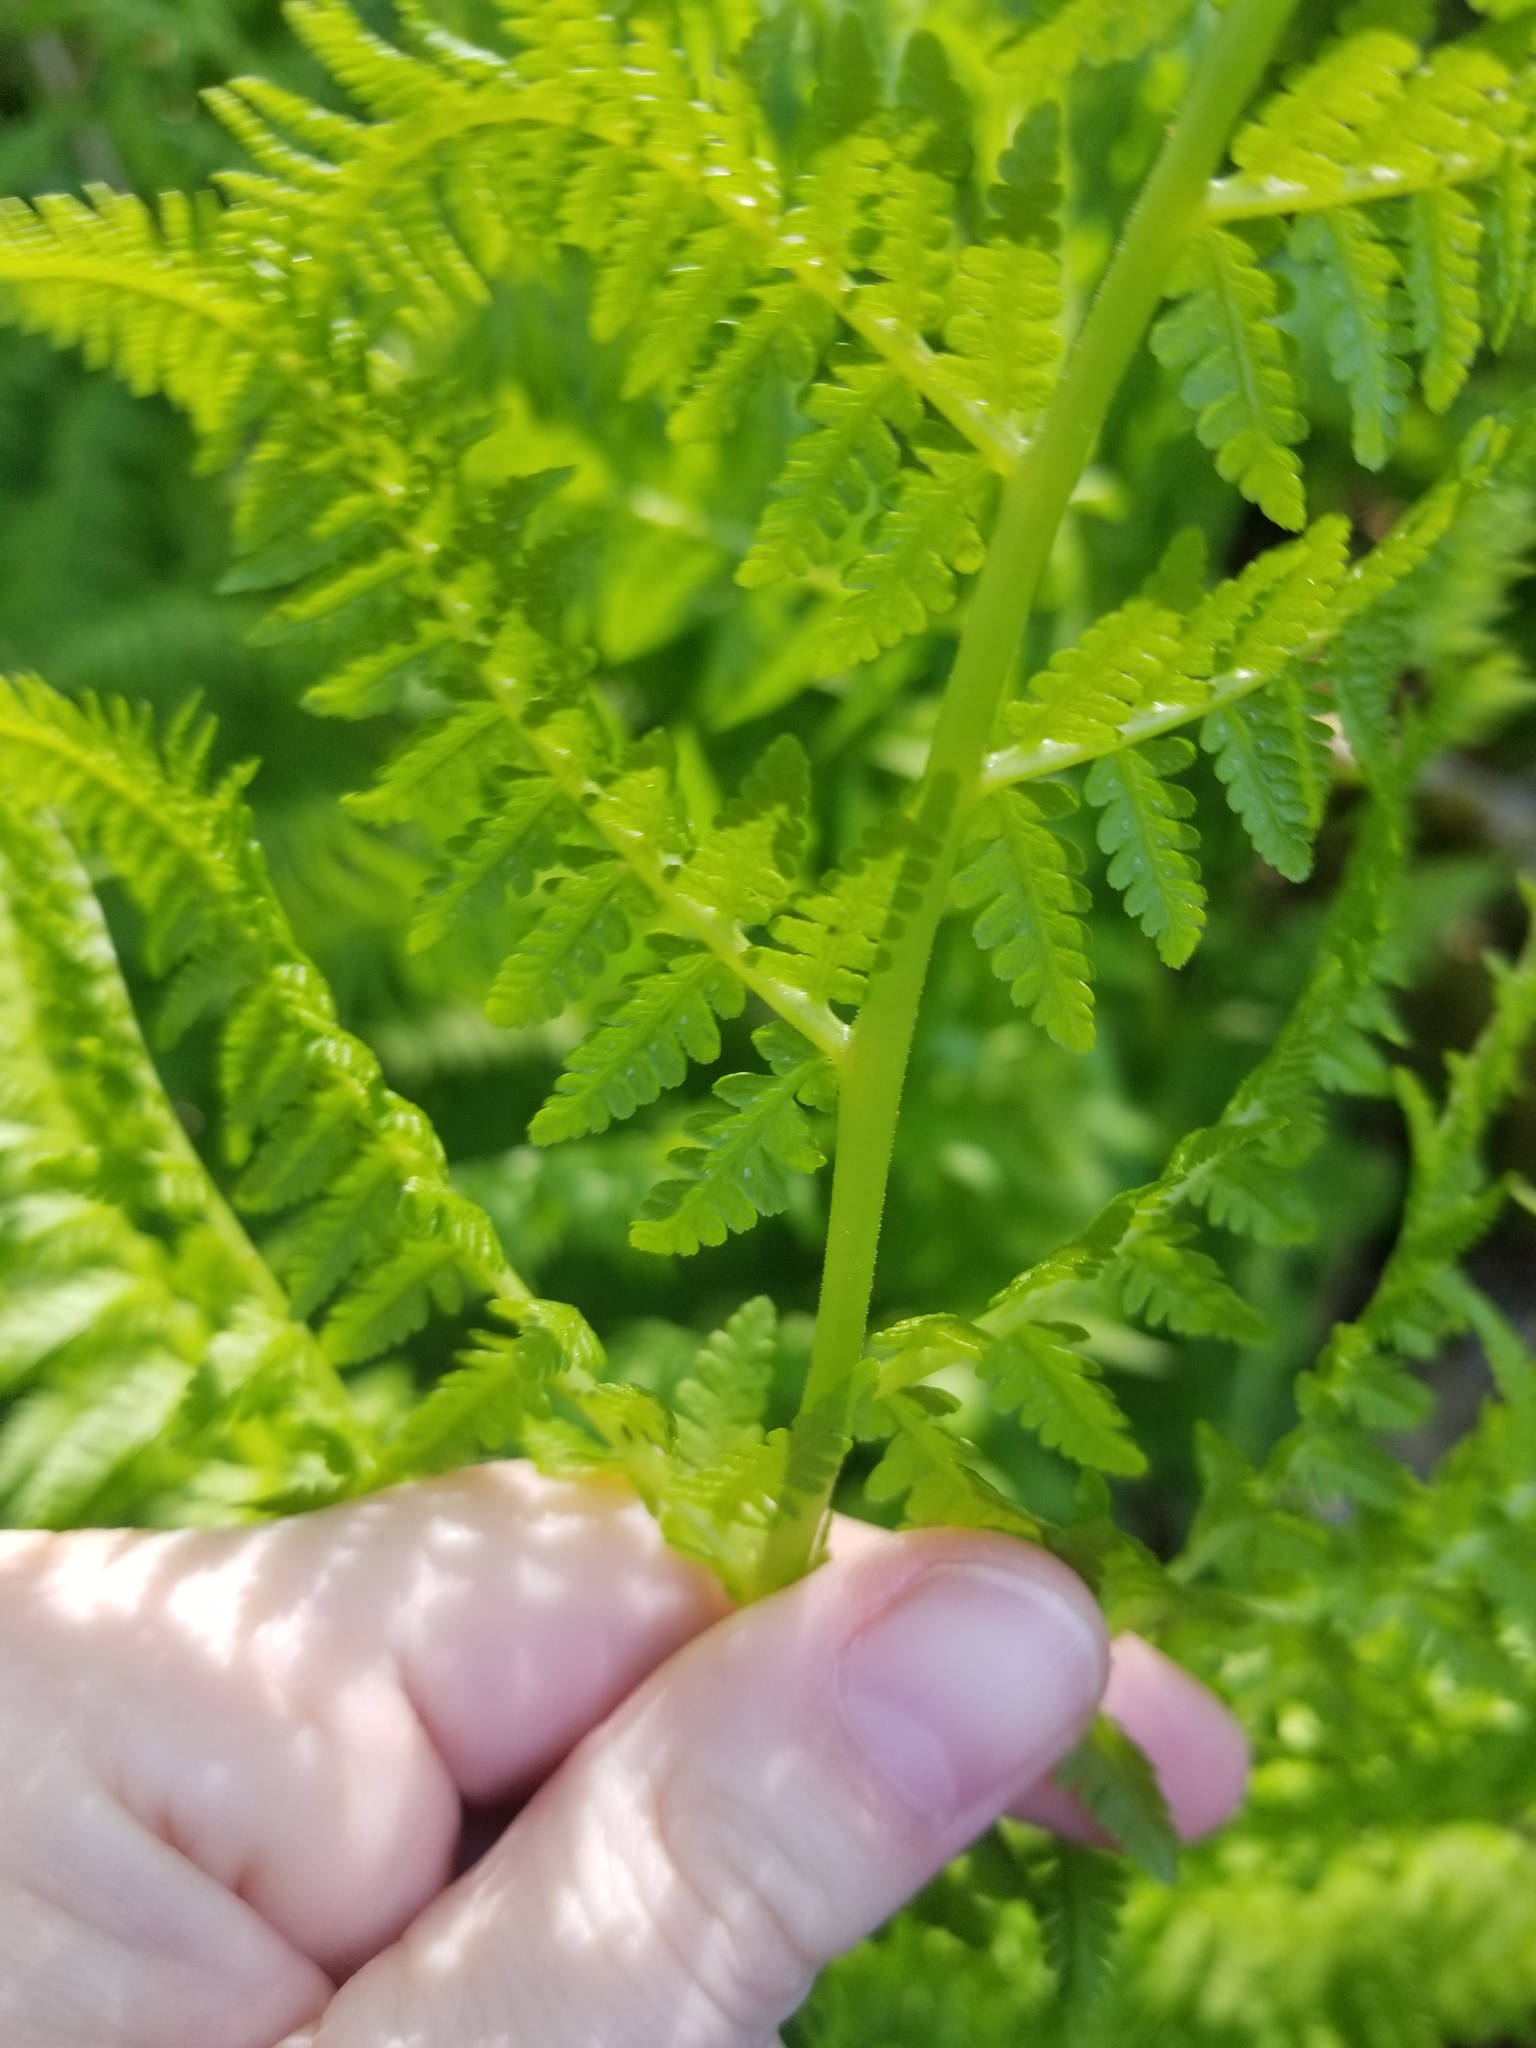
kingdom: Plantae
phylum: Tracheophyta
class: Polypodiopsida
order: Polypodiales
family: Athyriaceae
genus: Athyrium
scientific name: Athyrium filix-femina
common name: Lady fern
